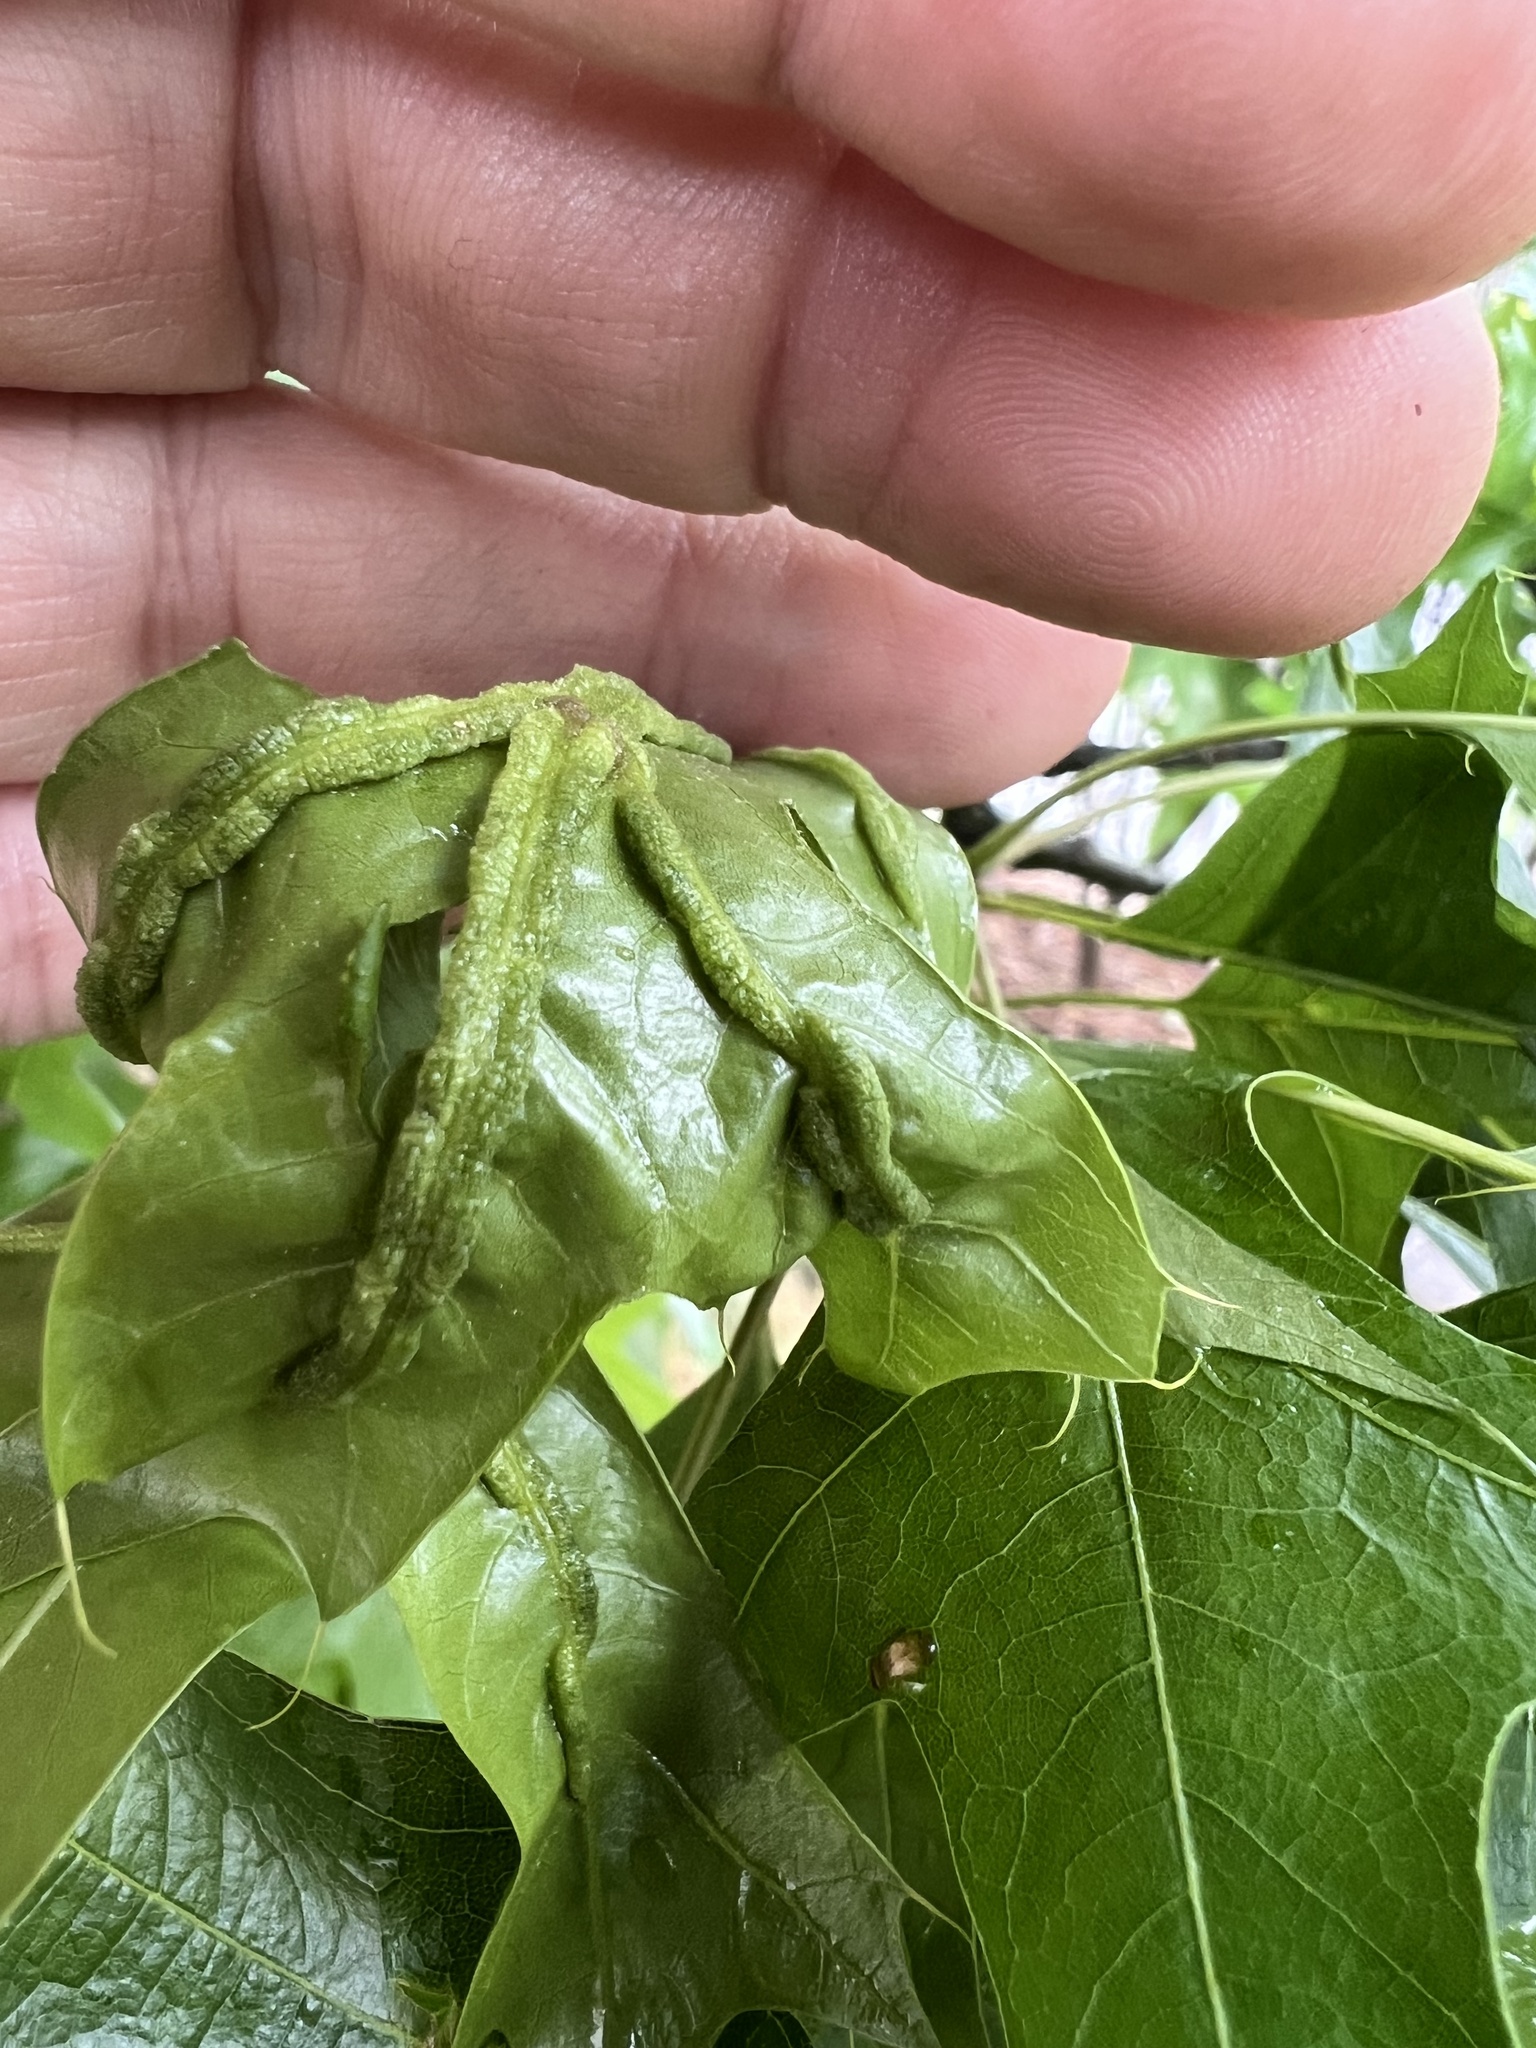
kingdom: Animalia
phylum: Arthropoda
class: Insecta
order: Diptera
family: Cecidomyiidae
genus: Macrodiplosis
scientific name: Macrodiplosis q-orucum
